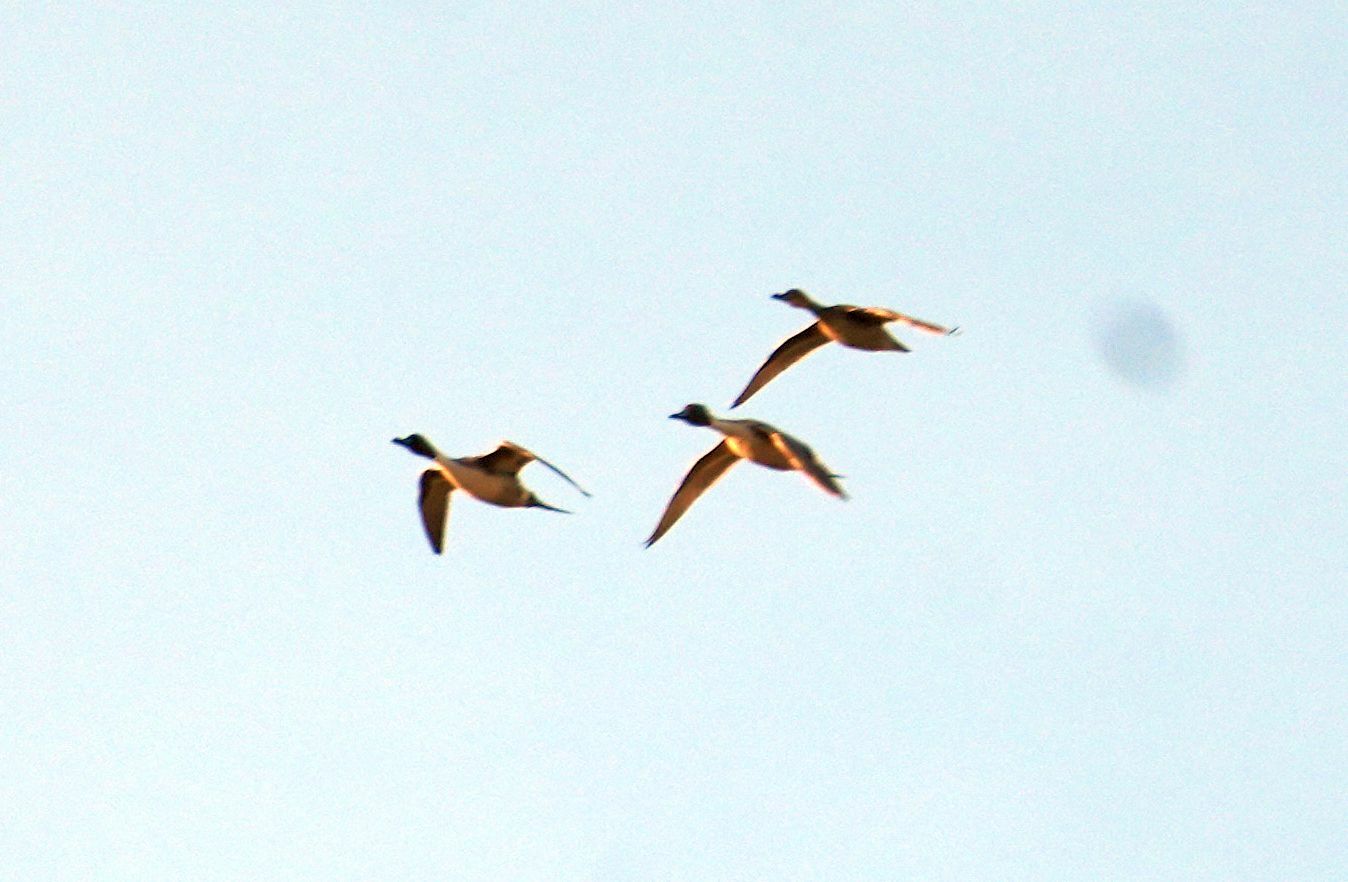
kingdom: Animalia
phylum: Chordata
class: Aves
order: Anseriformes
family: Anatidae
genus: Anas
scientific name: Anas acuta
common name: Northern pintail
